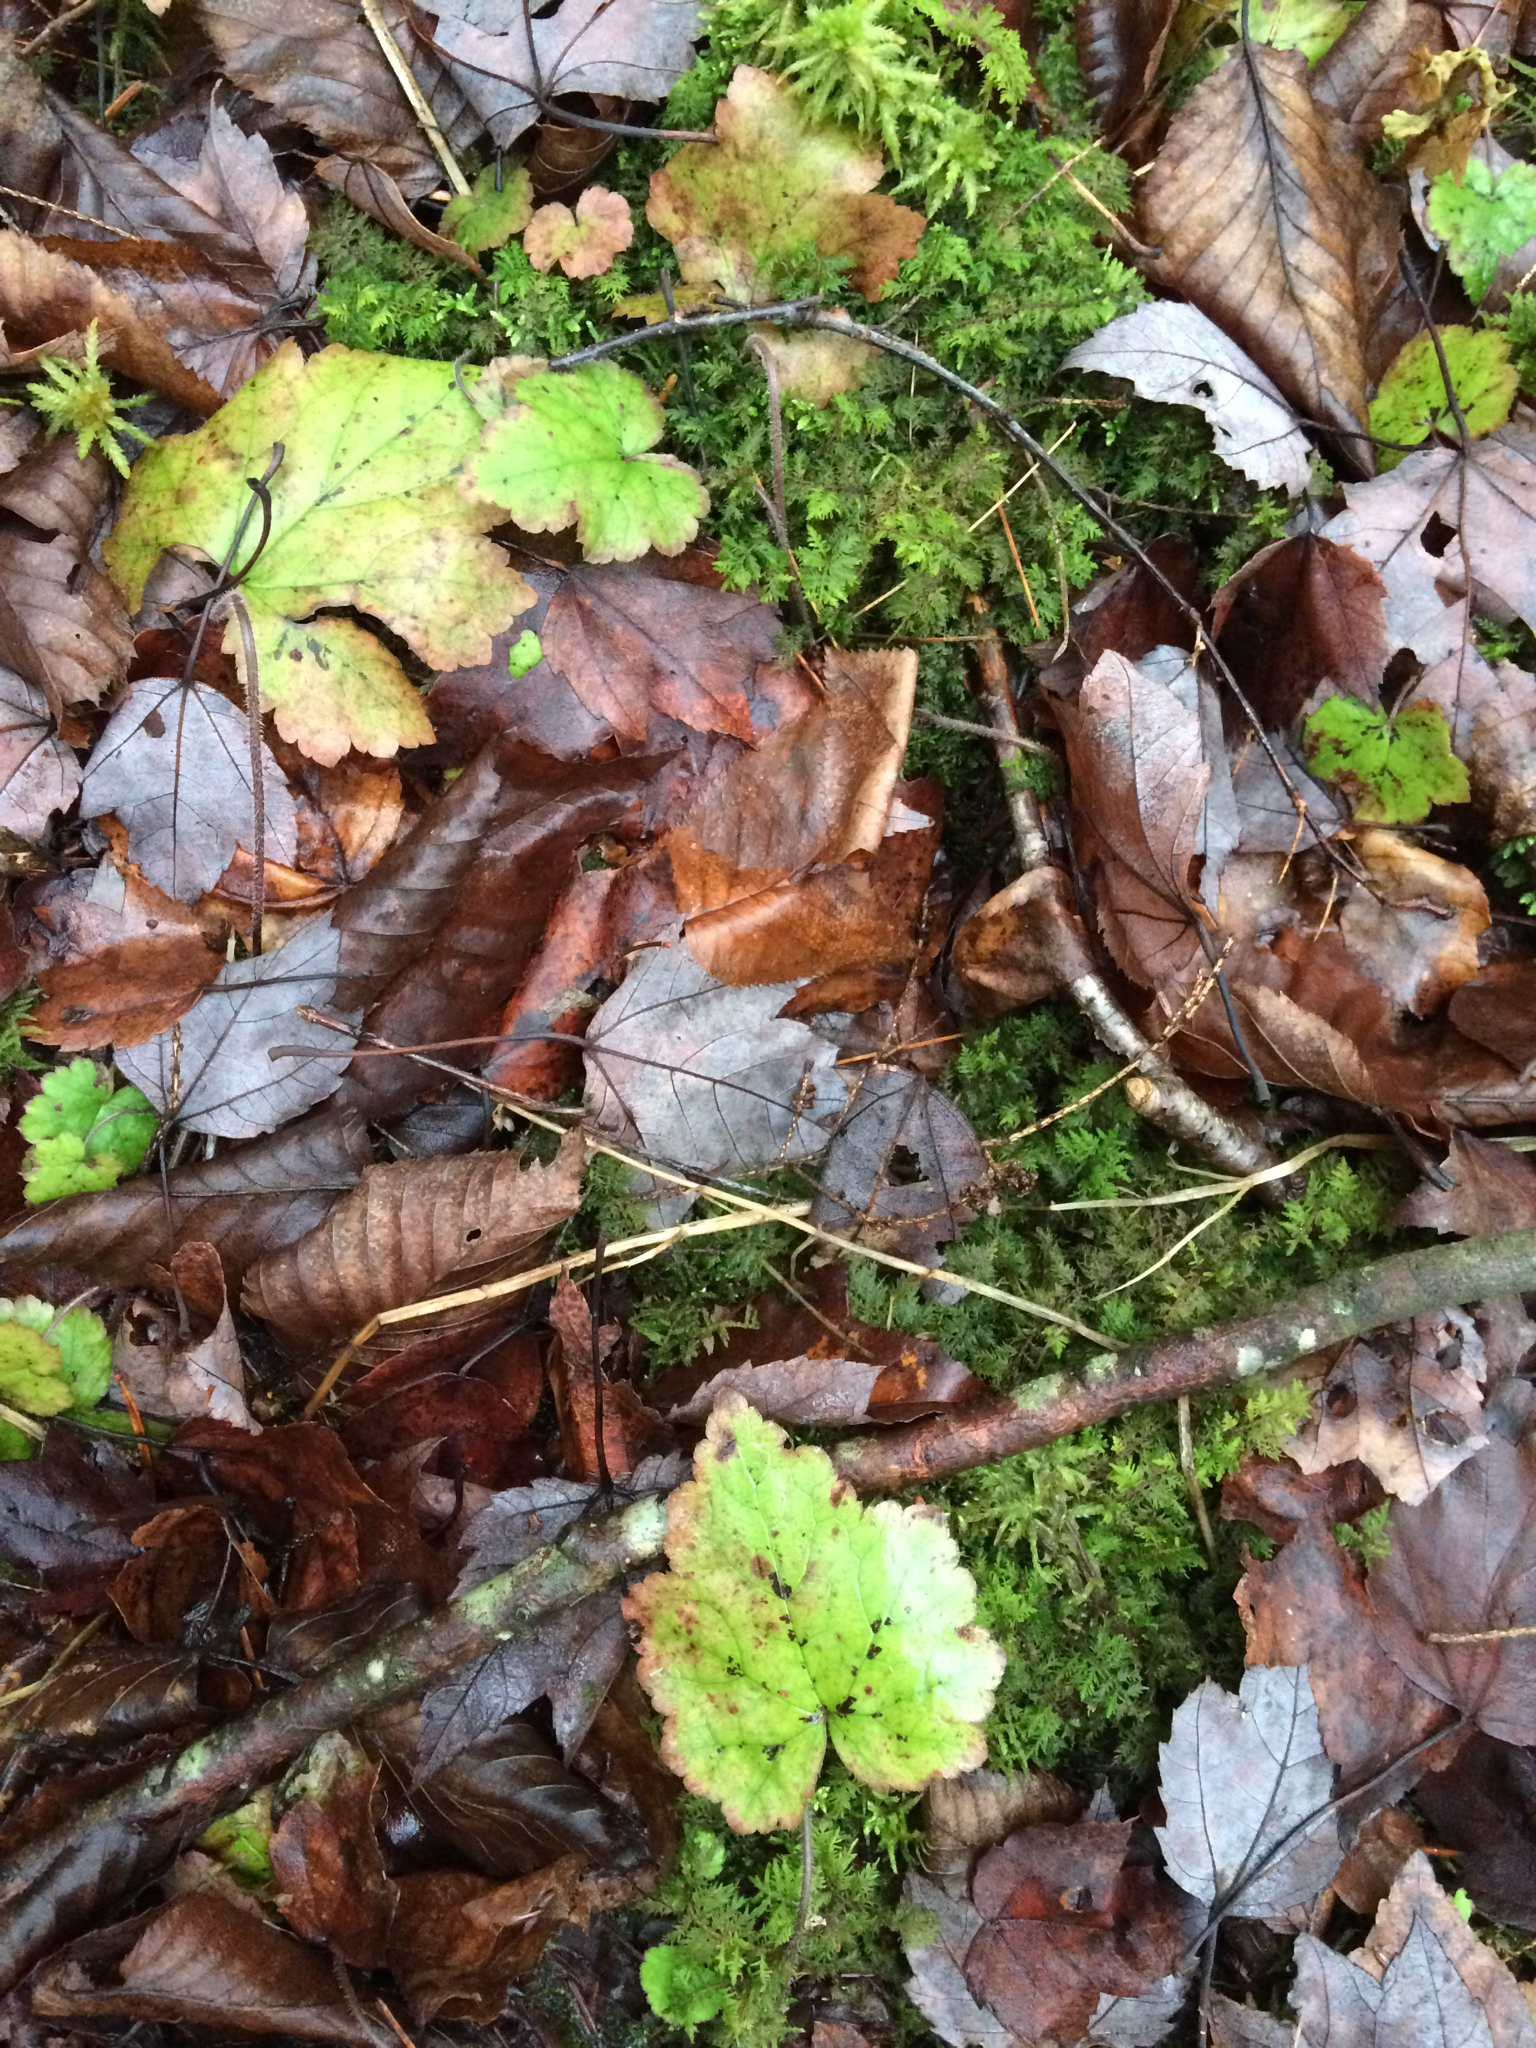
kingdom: Plantae
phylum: Tracheophyta
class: Magnoliopsida
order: Saxifragales
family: Saxifragaceae
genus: Tiarella
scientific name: Tiarella stolonifera
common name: Stoloniferous foamflower
